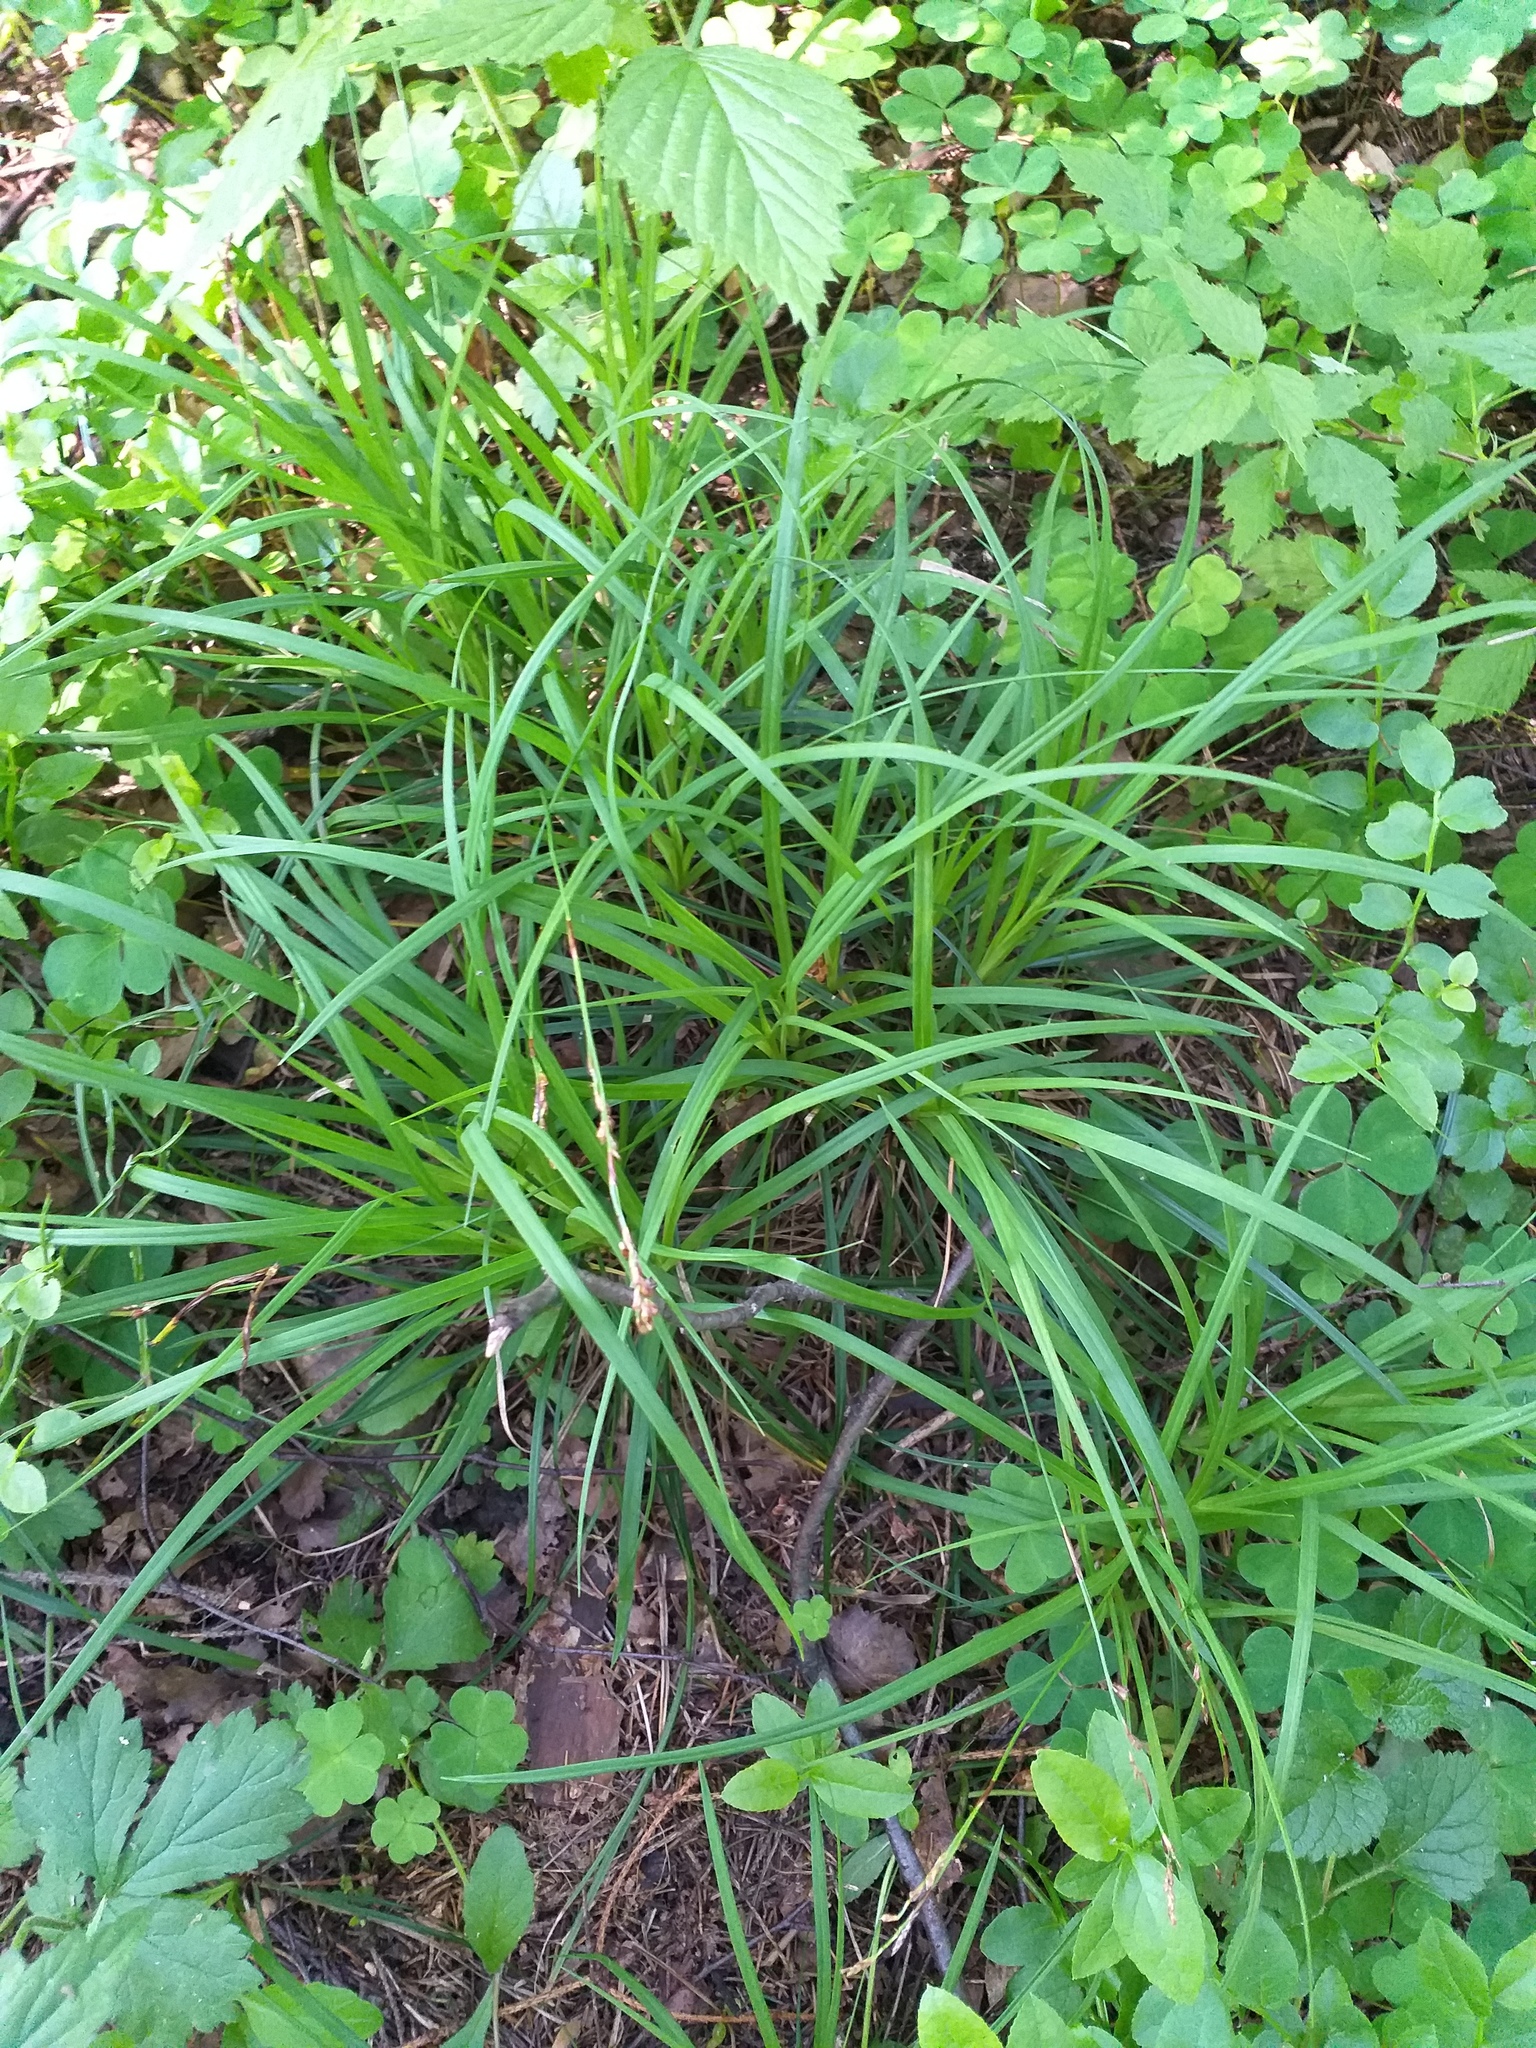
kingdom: Plantae
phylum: Tracheophyta
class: Liliopsida
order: Poales
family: Cyperaceae
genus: Carex
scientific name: Carex digitata
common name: Fingered sedge
